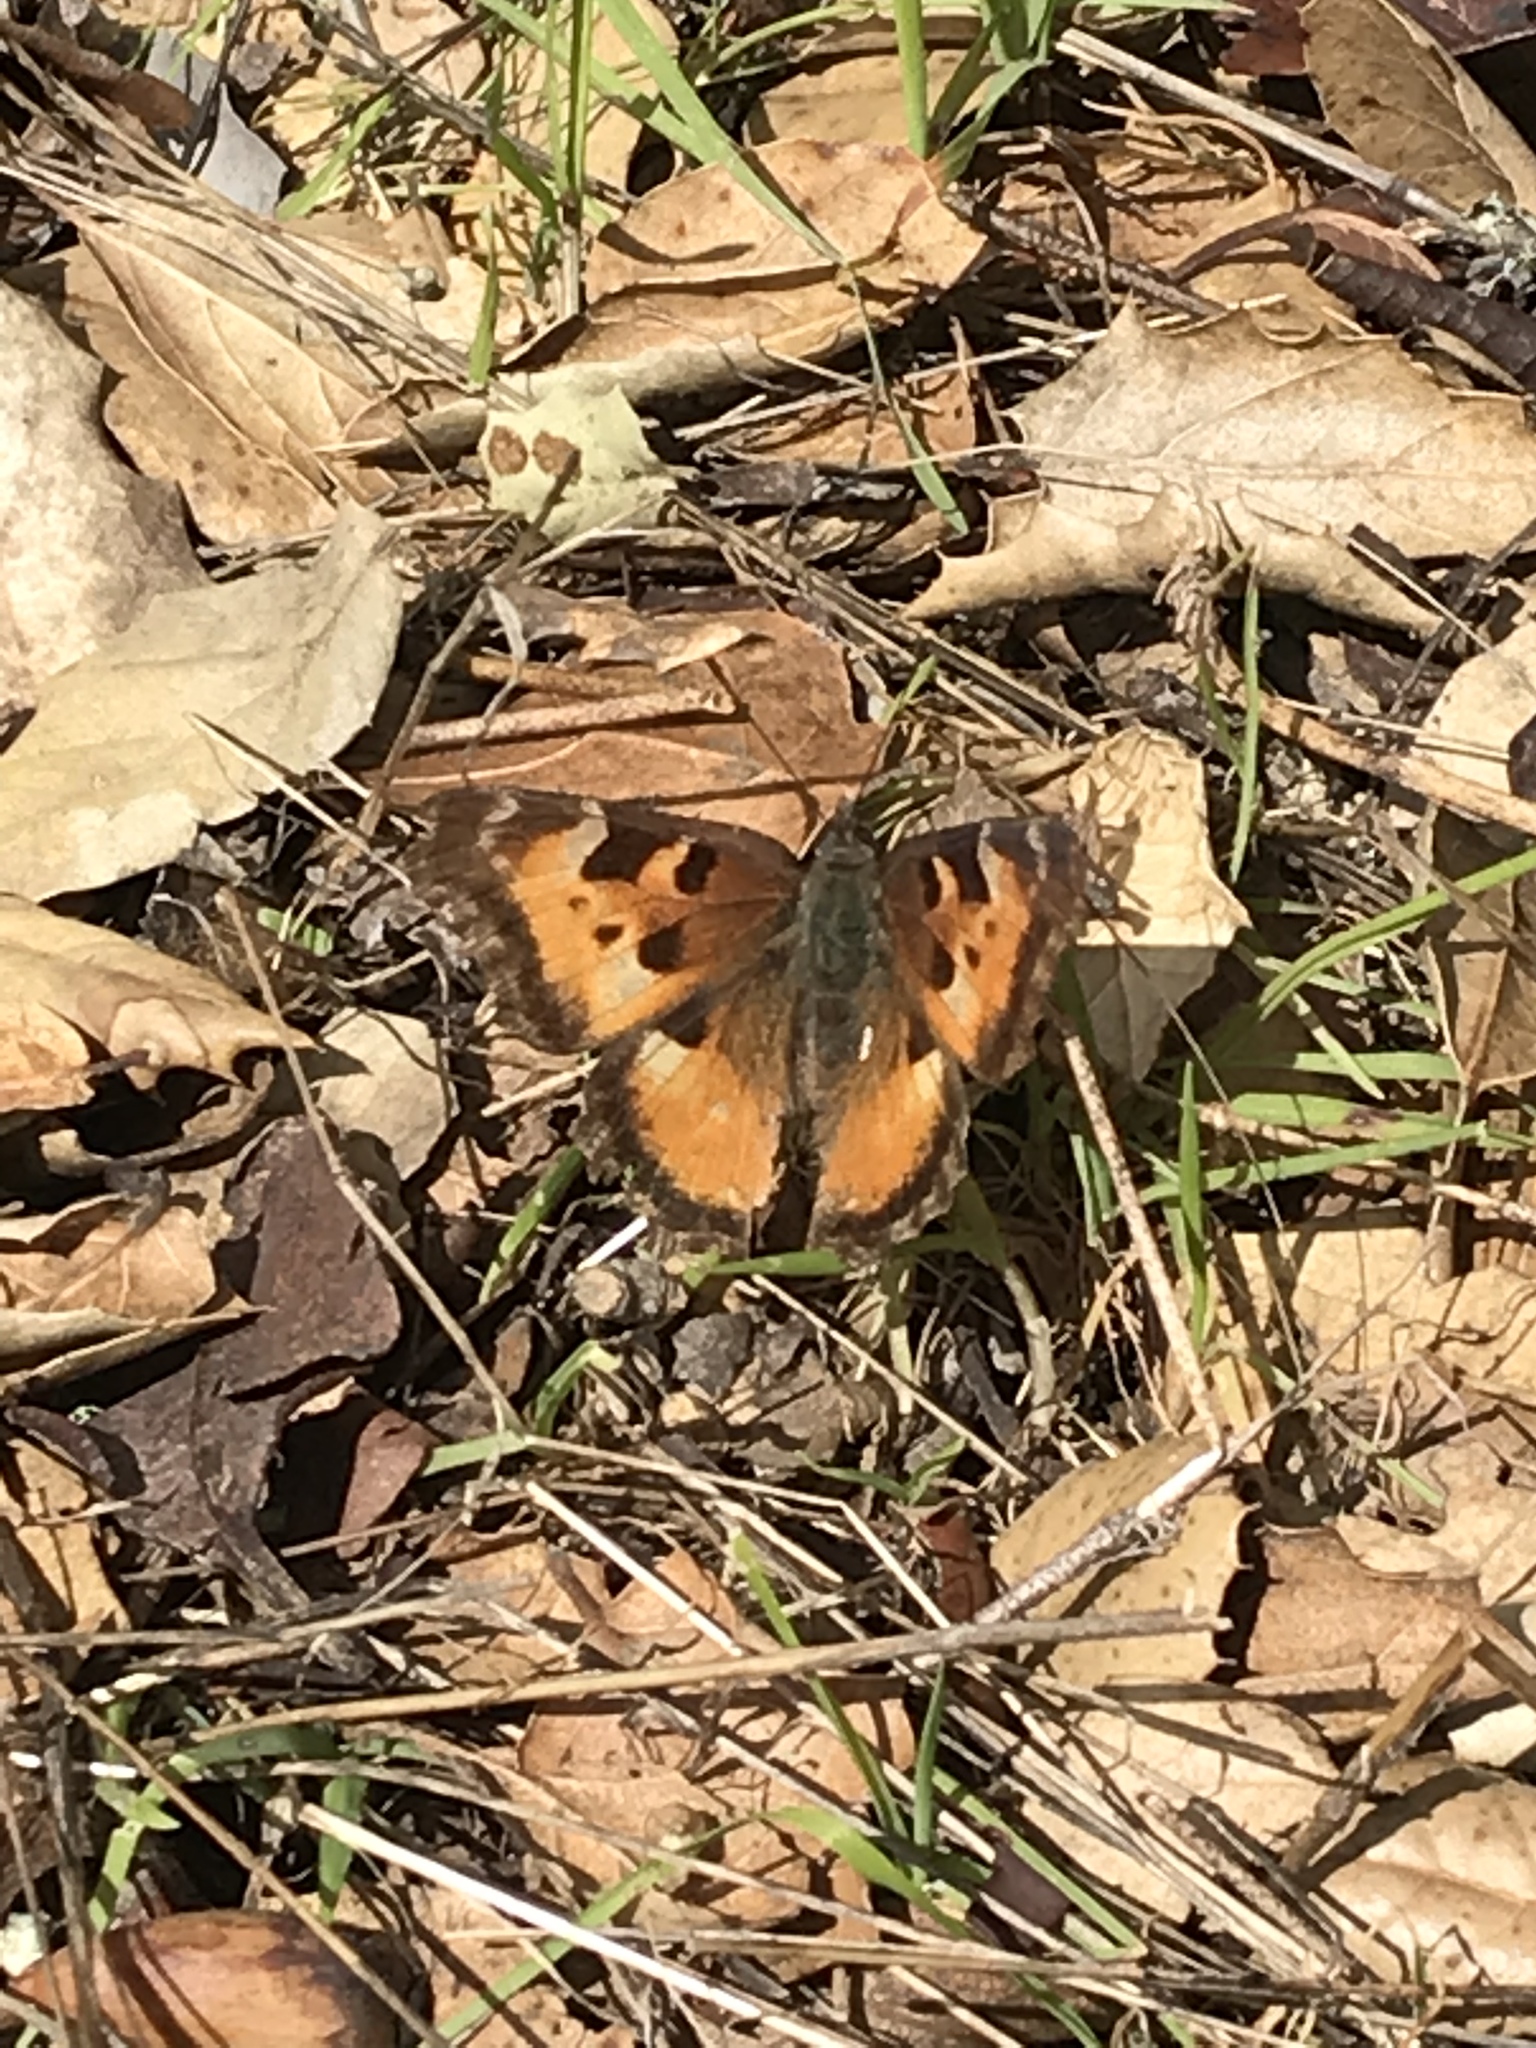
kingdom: Animalia
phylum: Arthropoda
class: Insecta
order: Lepidoptera
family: Nymphalidae
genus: Nymphalis
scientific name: Nymphalis californica
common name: California tortoiseshell
